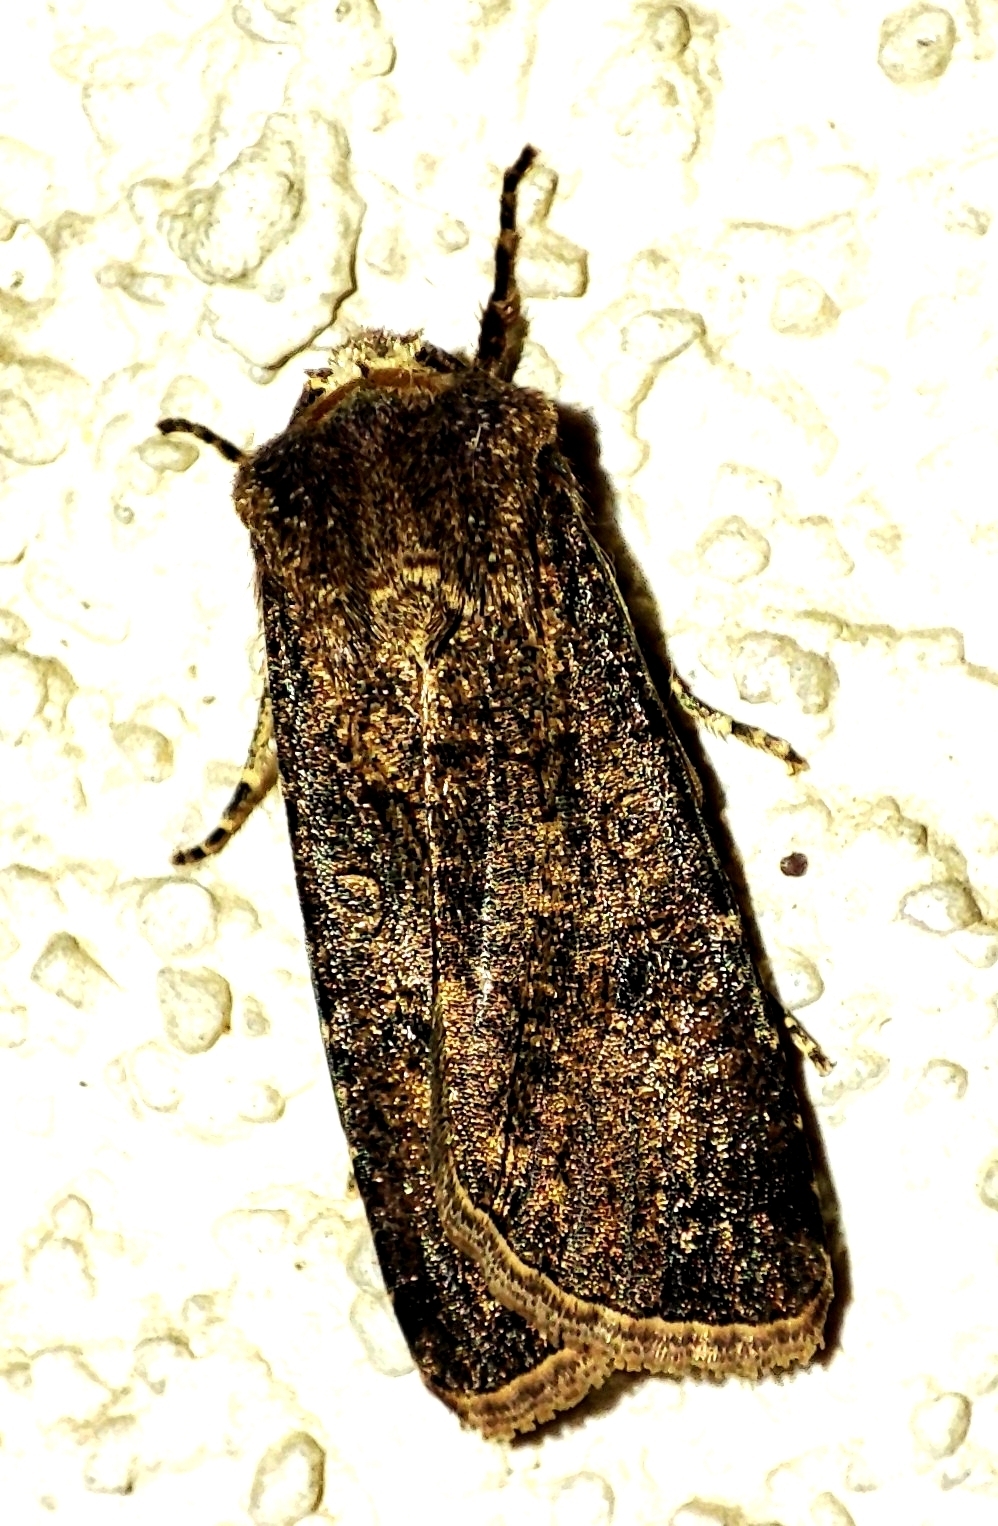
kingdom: Animalia
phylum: Arthropoda
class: Insecta
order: Lepidoptera
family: Noctuidae
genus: Agrotis
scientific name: Agrotis segetum
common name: Turnip moth
